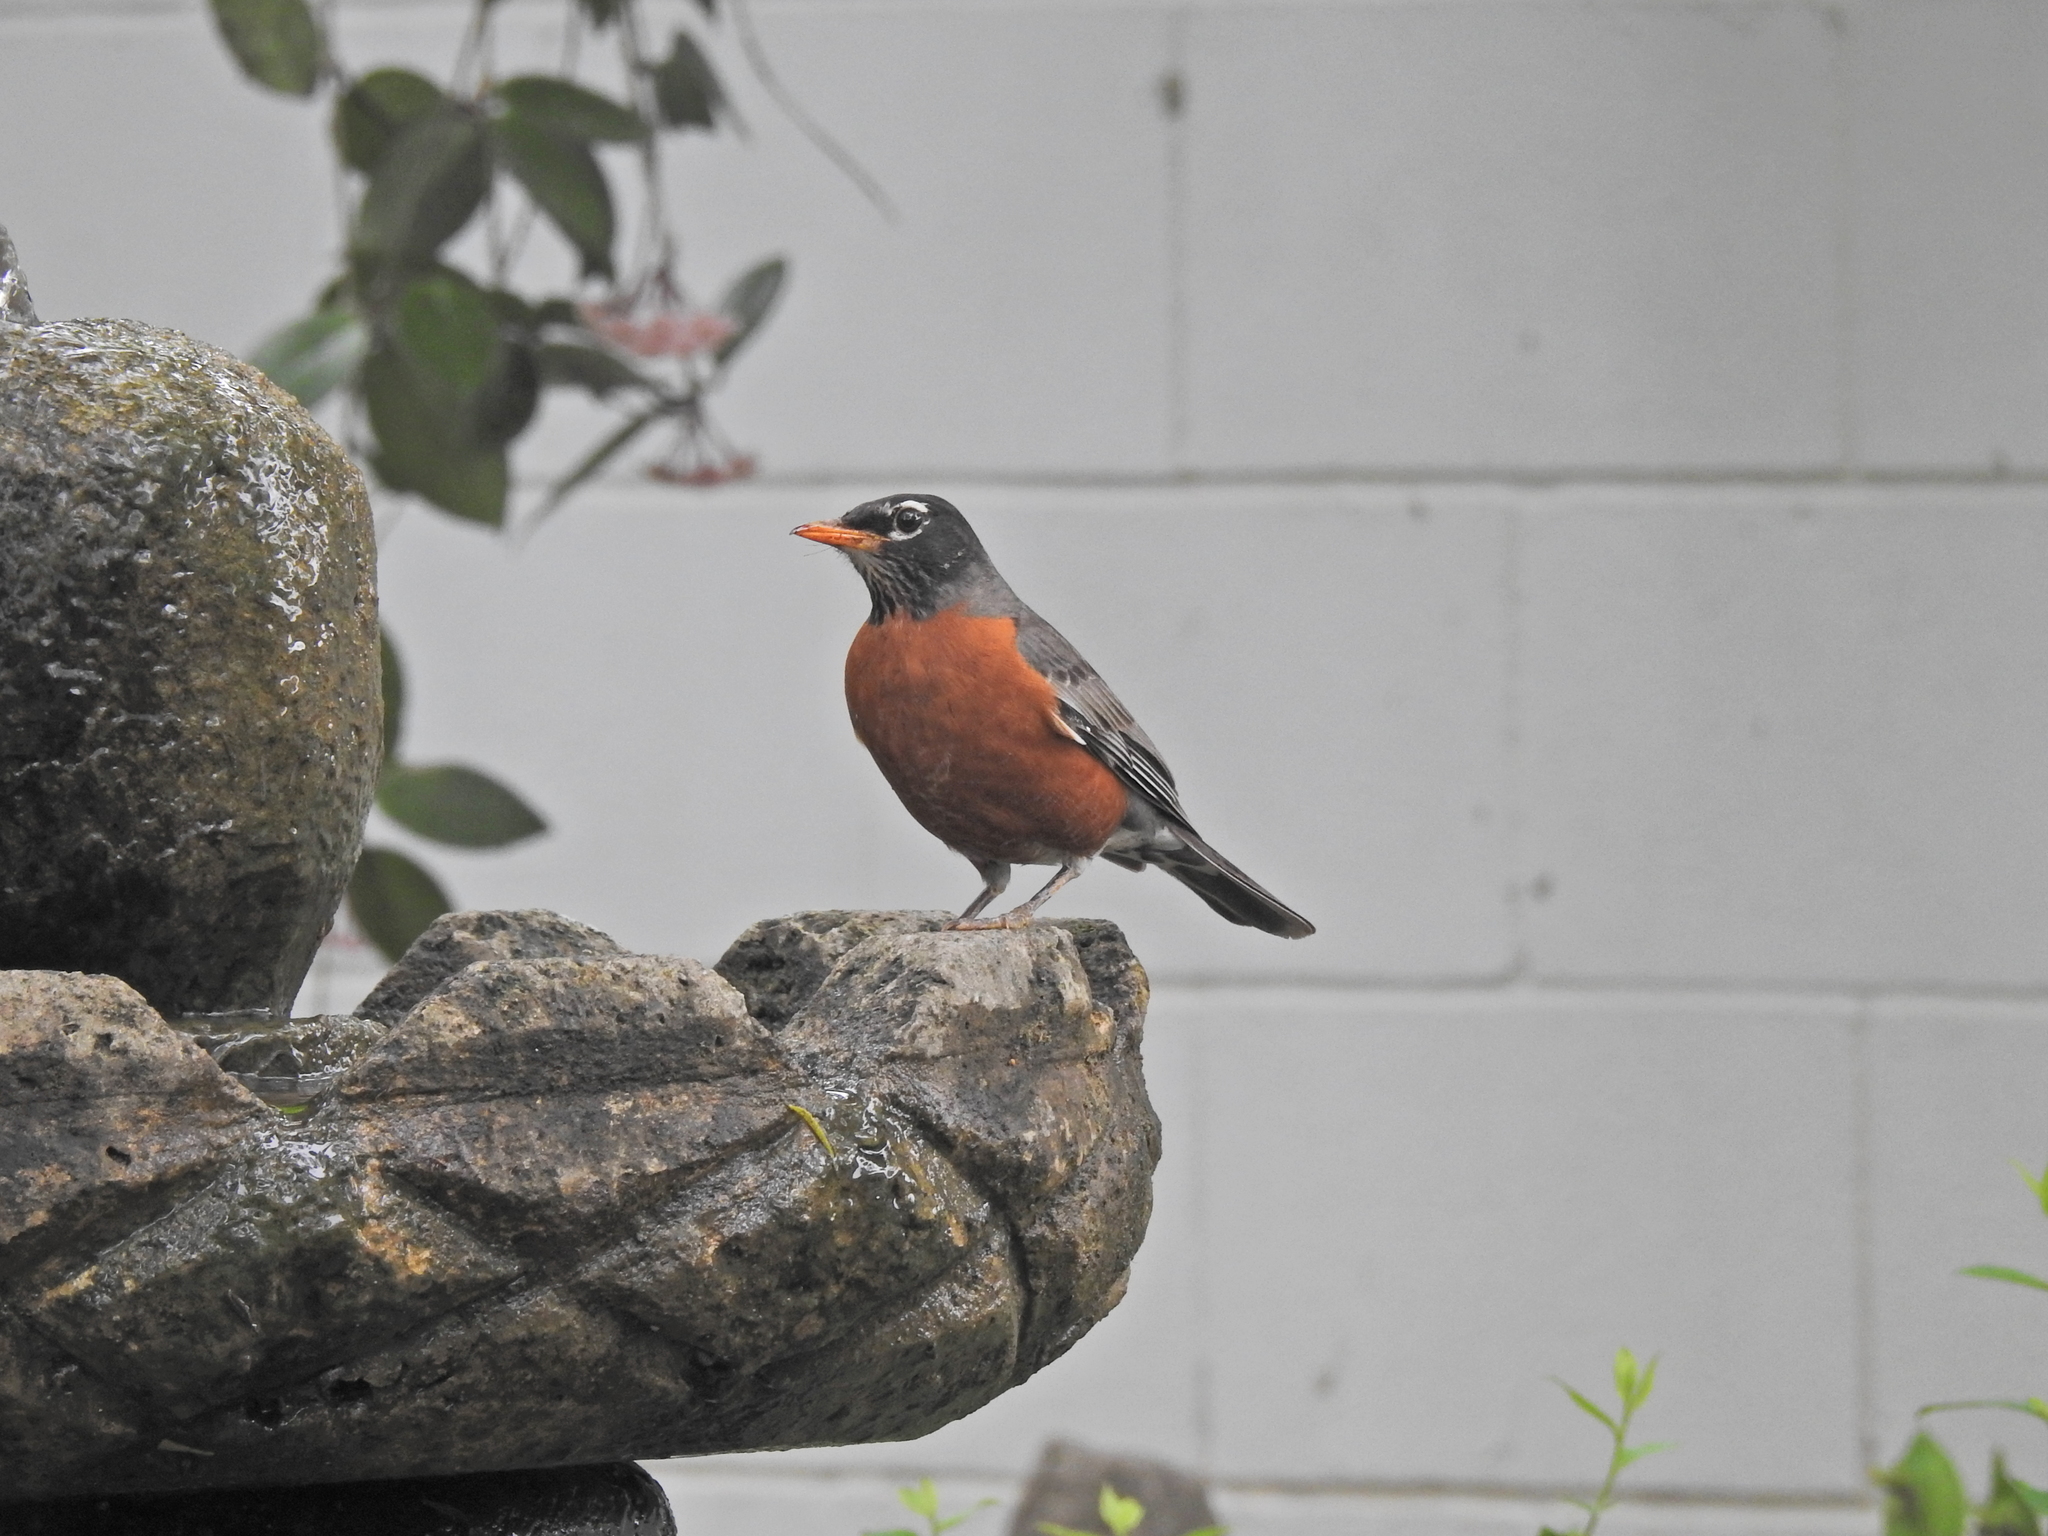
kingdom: Animalia
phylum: Chordata
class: Aves
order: Passeriformes
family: Turdidae
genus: Turdus
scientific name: Turdus migratorius
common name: American robin
